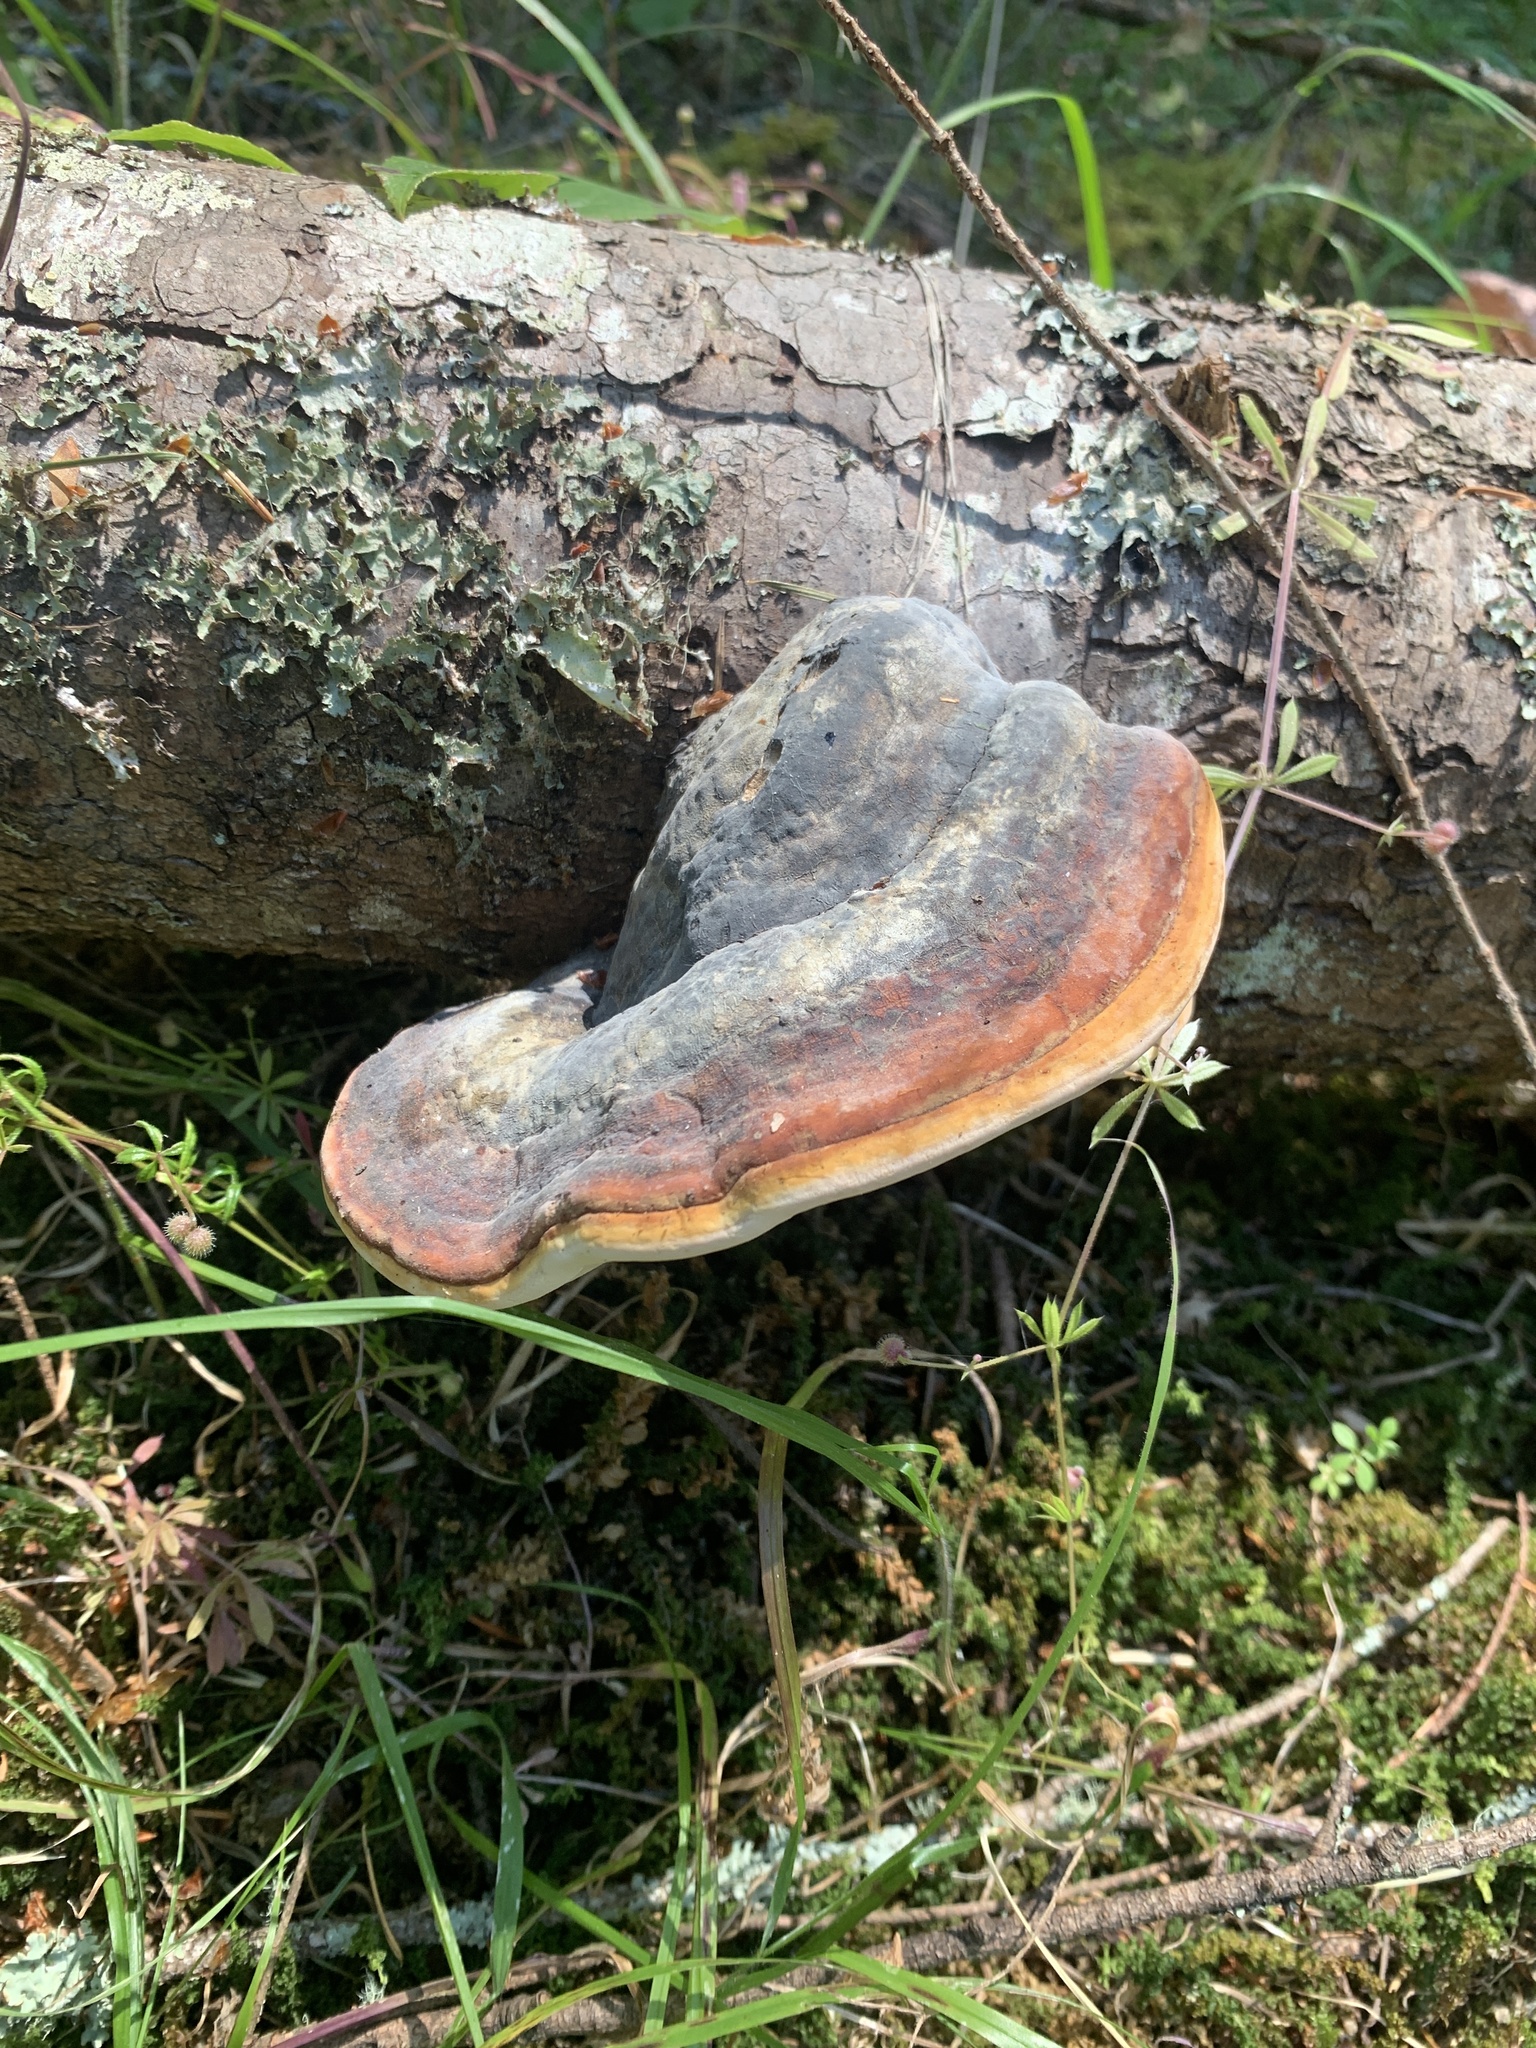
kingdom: Fungi
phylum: Basidiomycota
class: Agaricomycetes
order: Polyporales
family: Fomitopsidaceae
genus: Fomitopsis
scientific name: Fomitopsis mounceae
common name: Northern red belt
